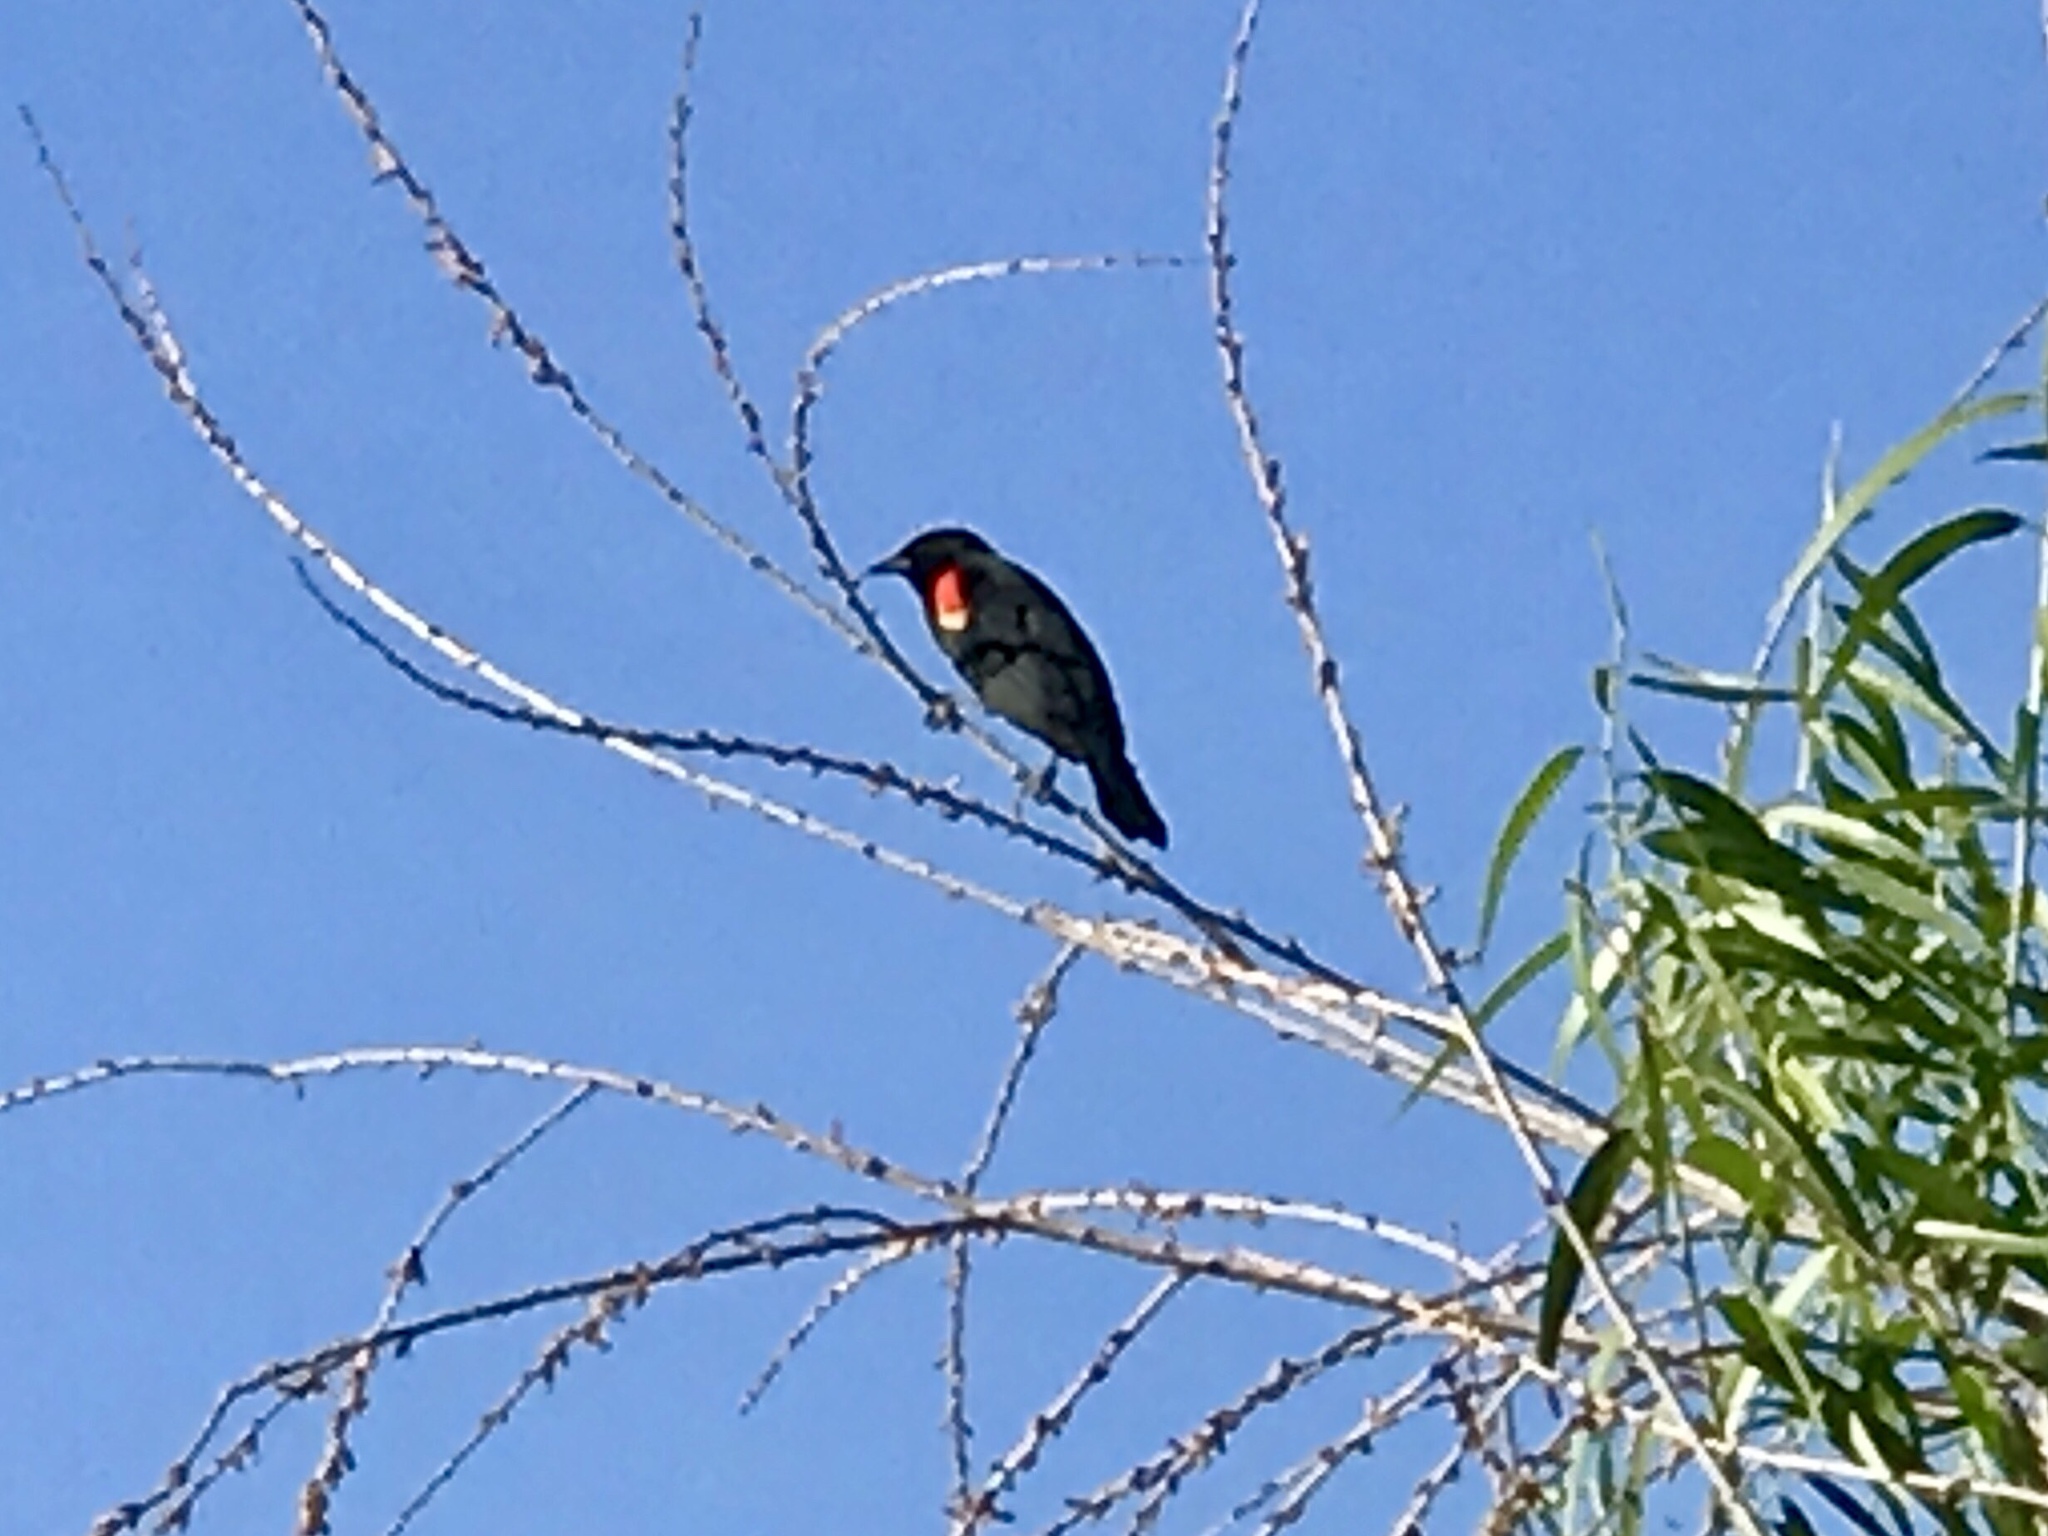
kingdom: Animalia
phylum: Chordata
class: Aves
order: Passeriformes
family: Icteridae
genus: Agelaius
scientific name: Agelaius phoeniceus
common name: Red-winged blackbird
